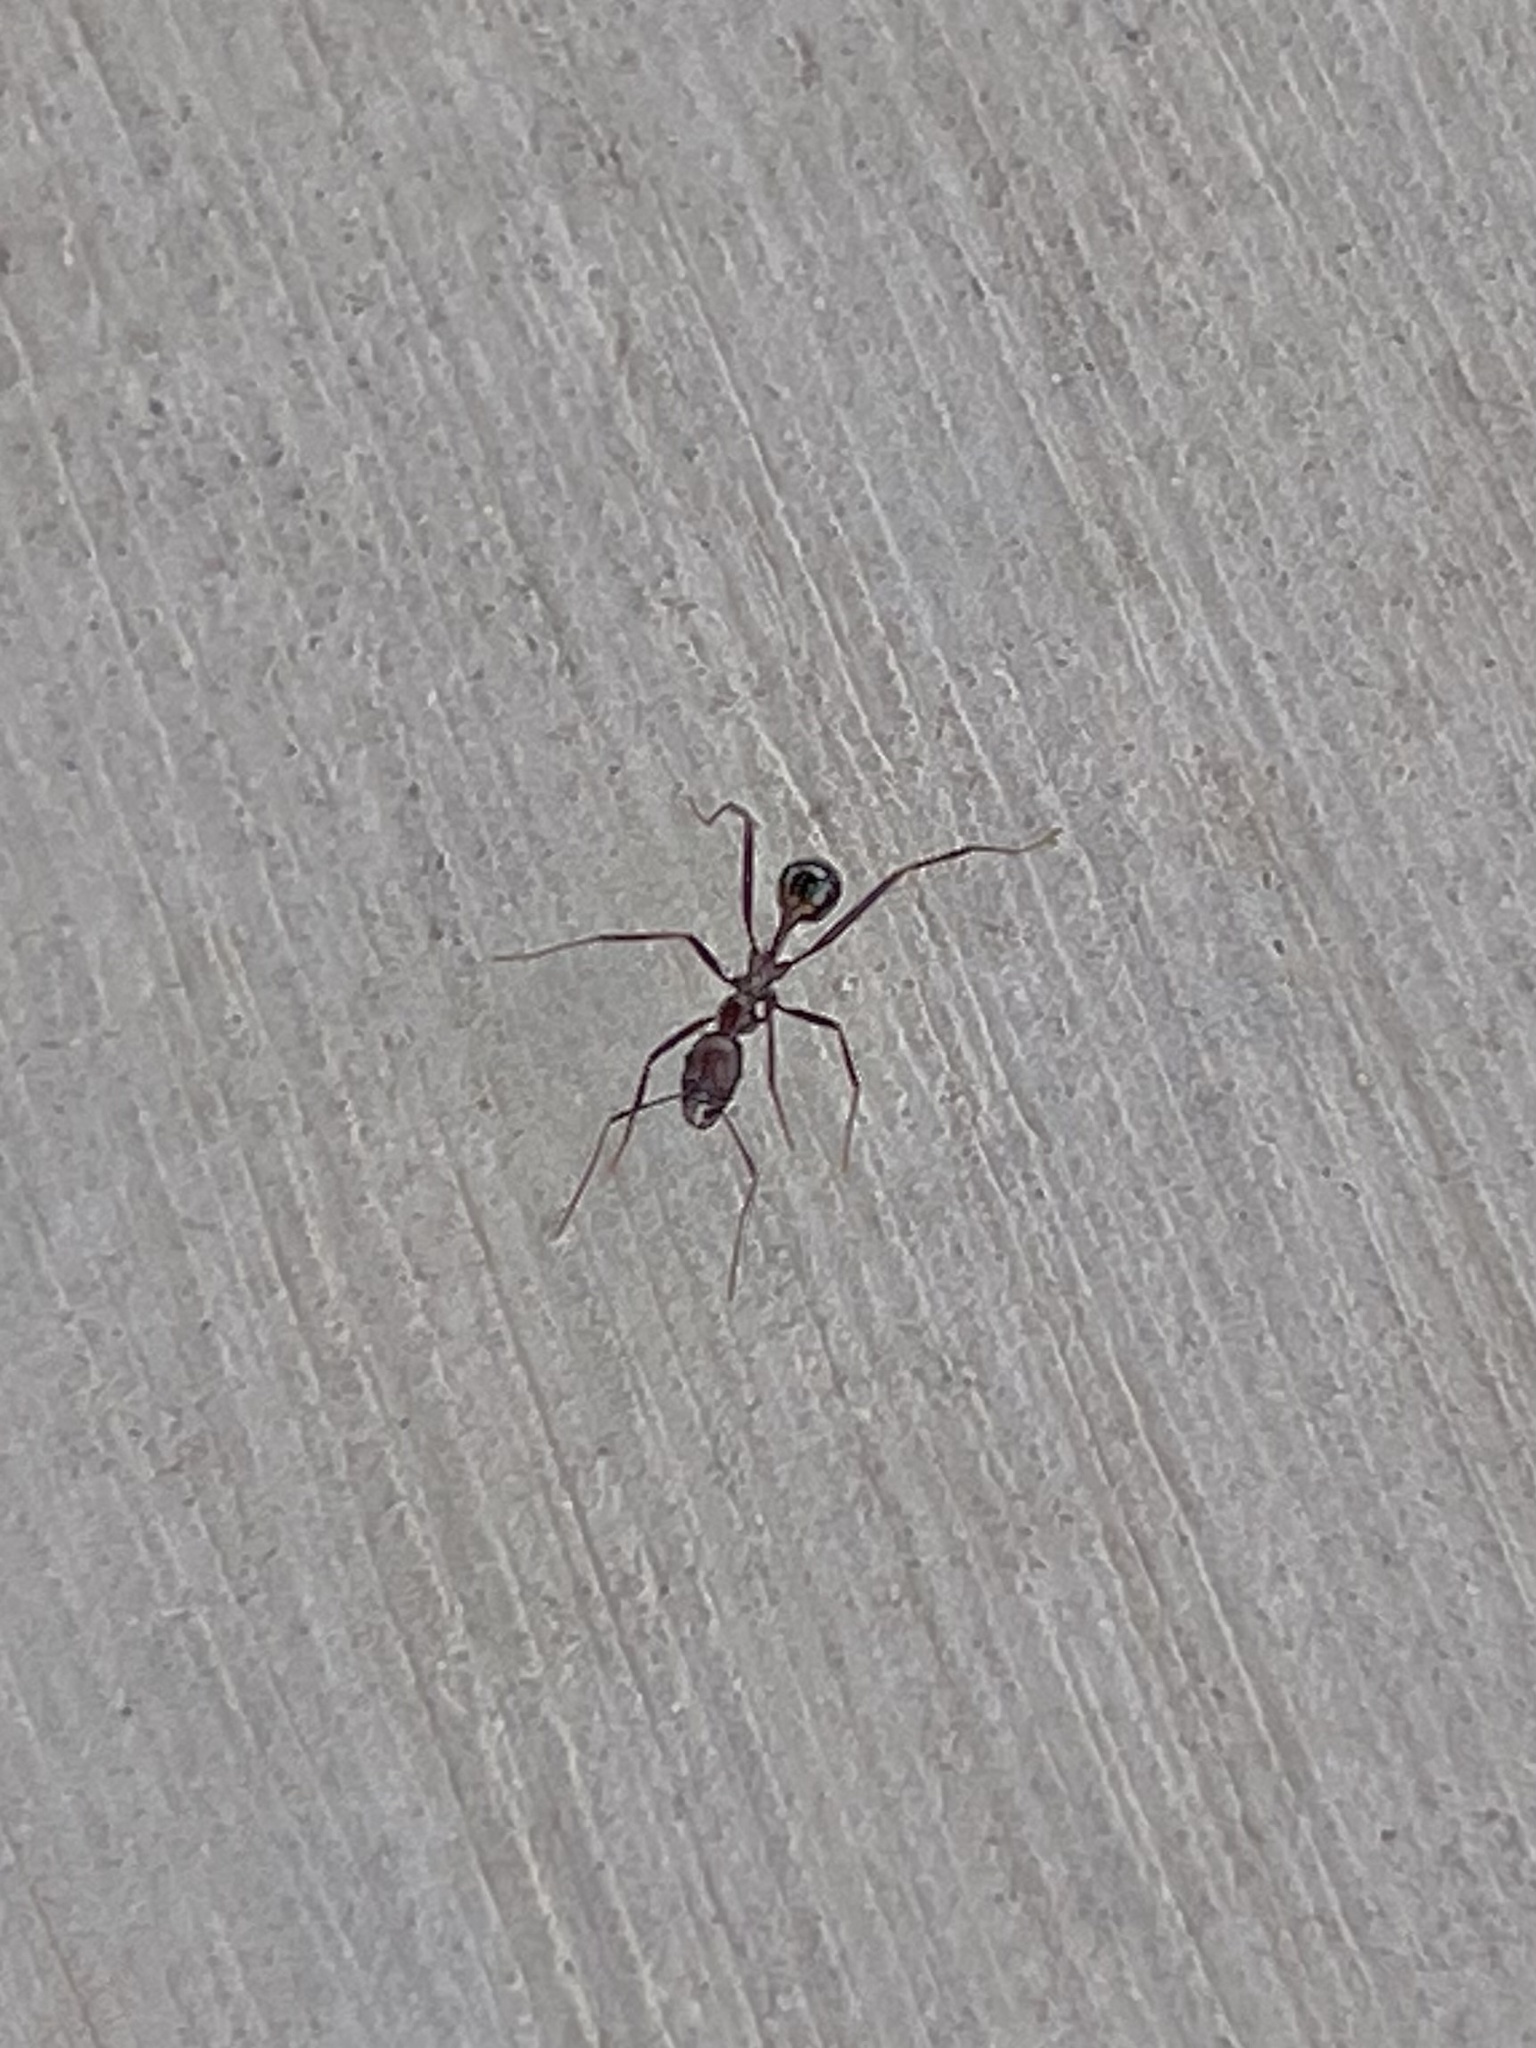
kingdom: Animalia
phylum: Arthropoda
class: Insecta
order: Hymenoptera
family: Formicidae
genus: Novomessor
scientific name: Novomessor cockerelli
